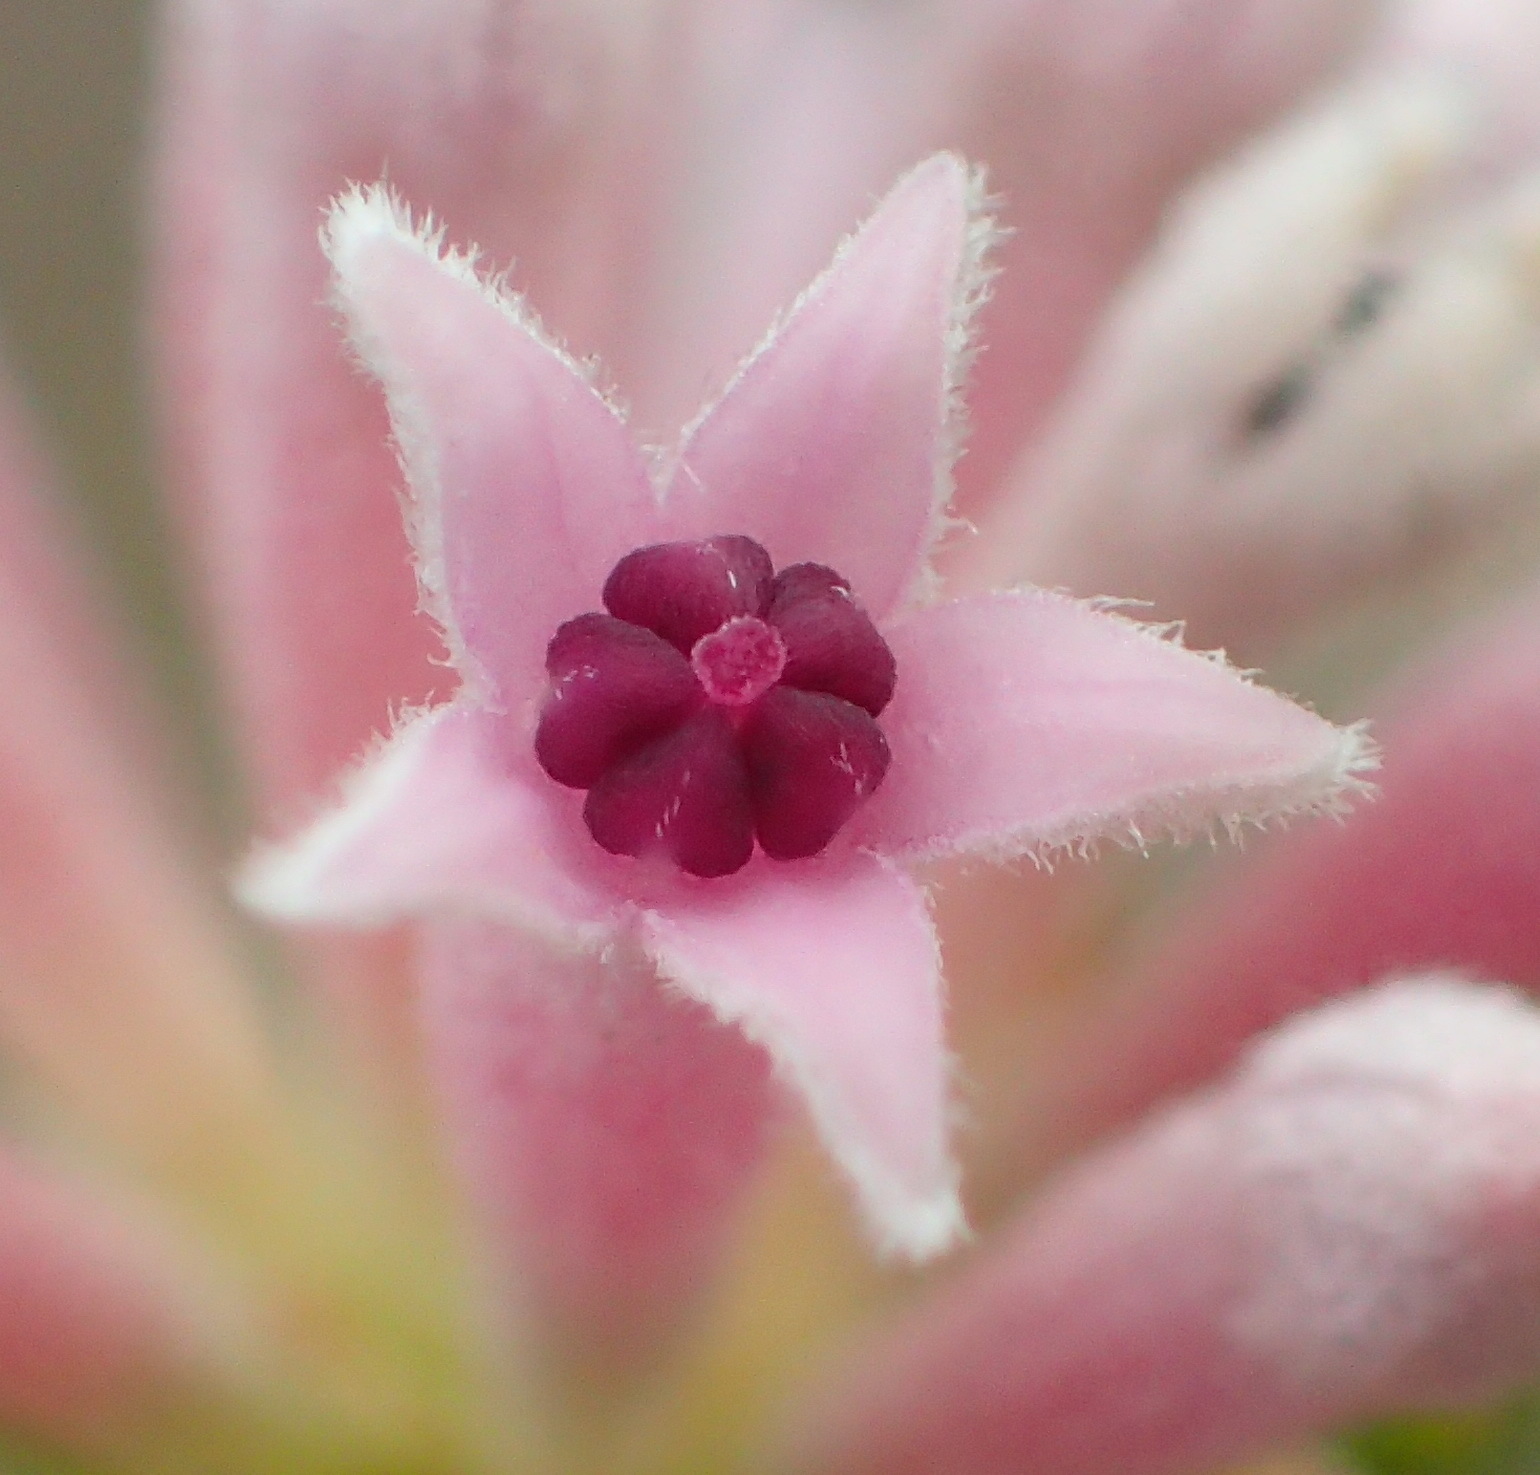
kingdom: Plantae
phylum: Tracheophyta
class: Magnoliopsida
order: Rosales
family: Rhamnaceae
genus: Phylica
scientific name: Phylica lachneaeoides
